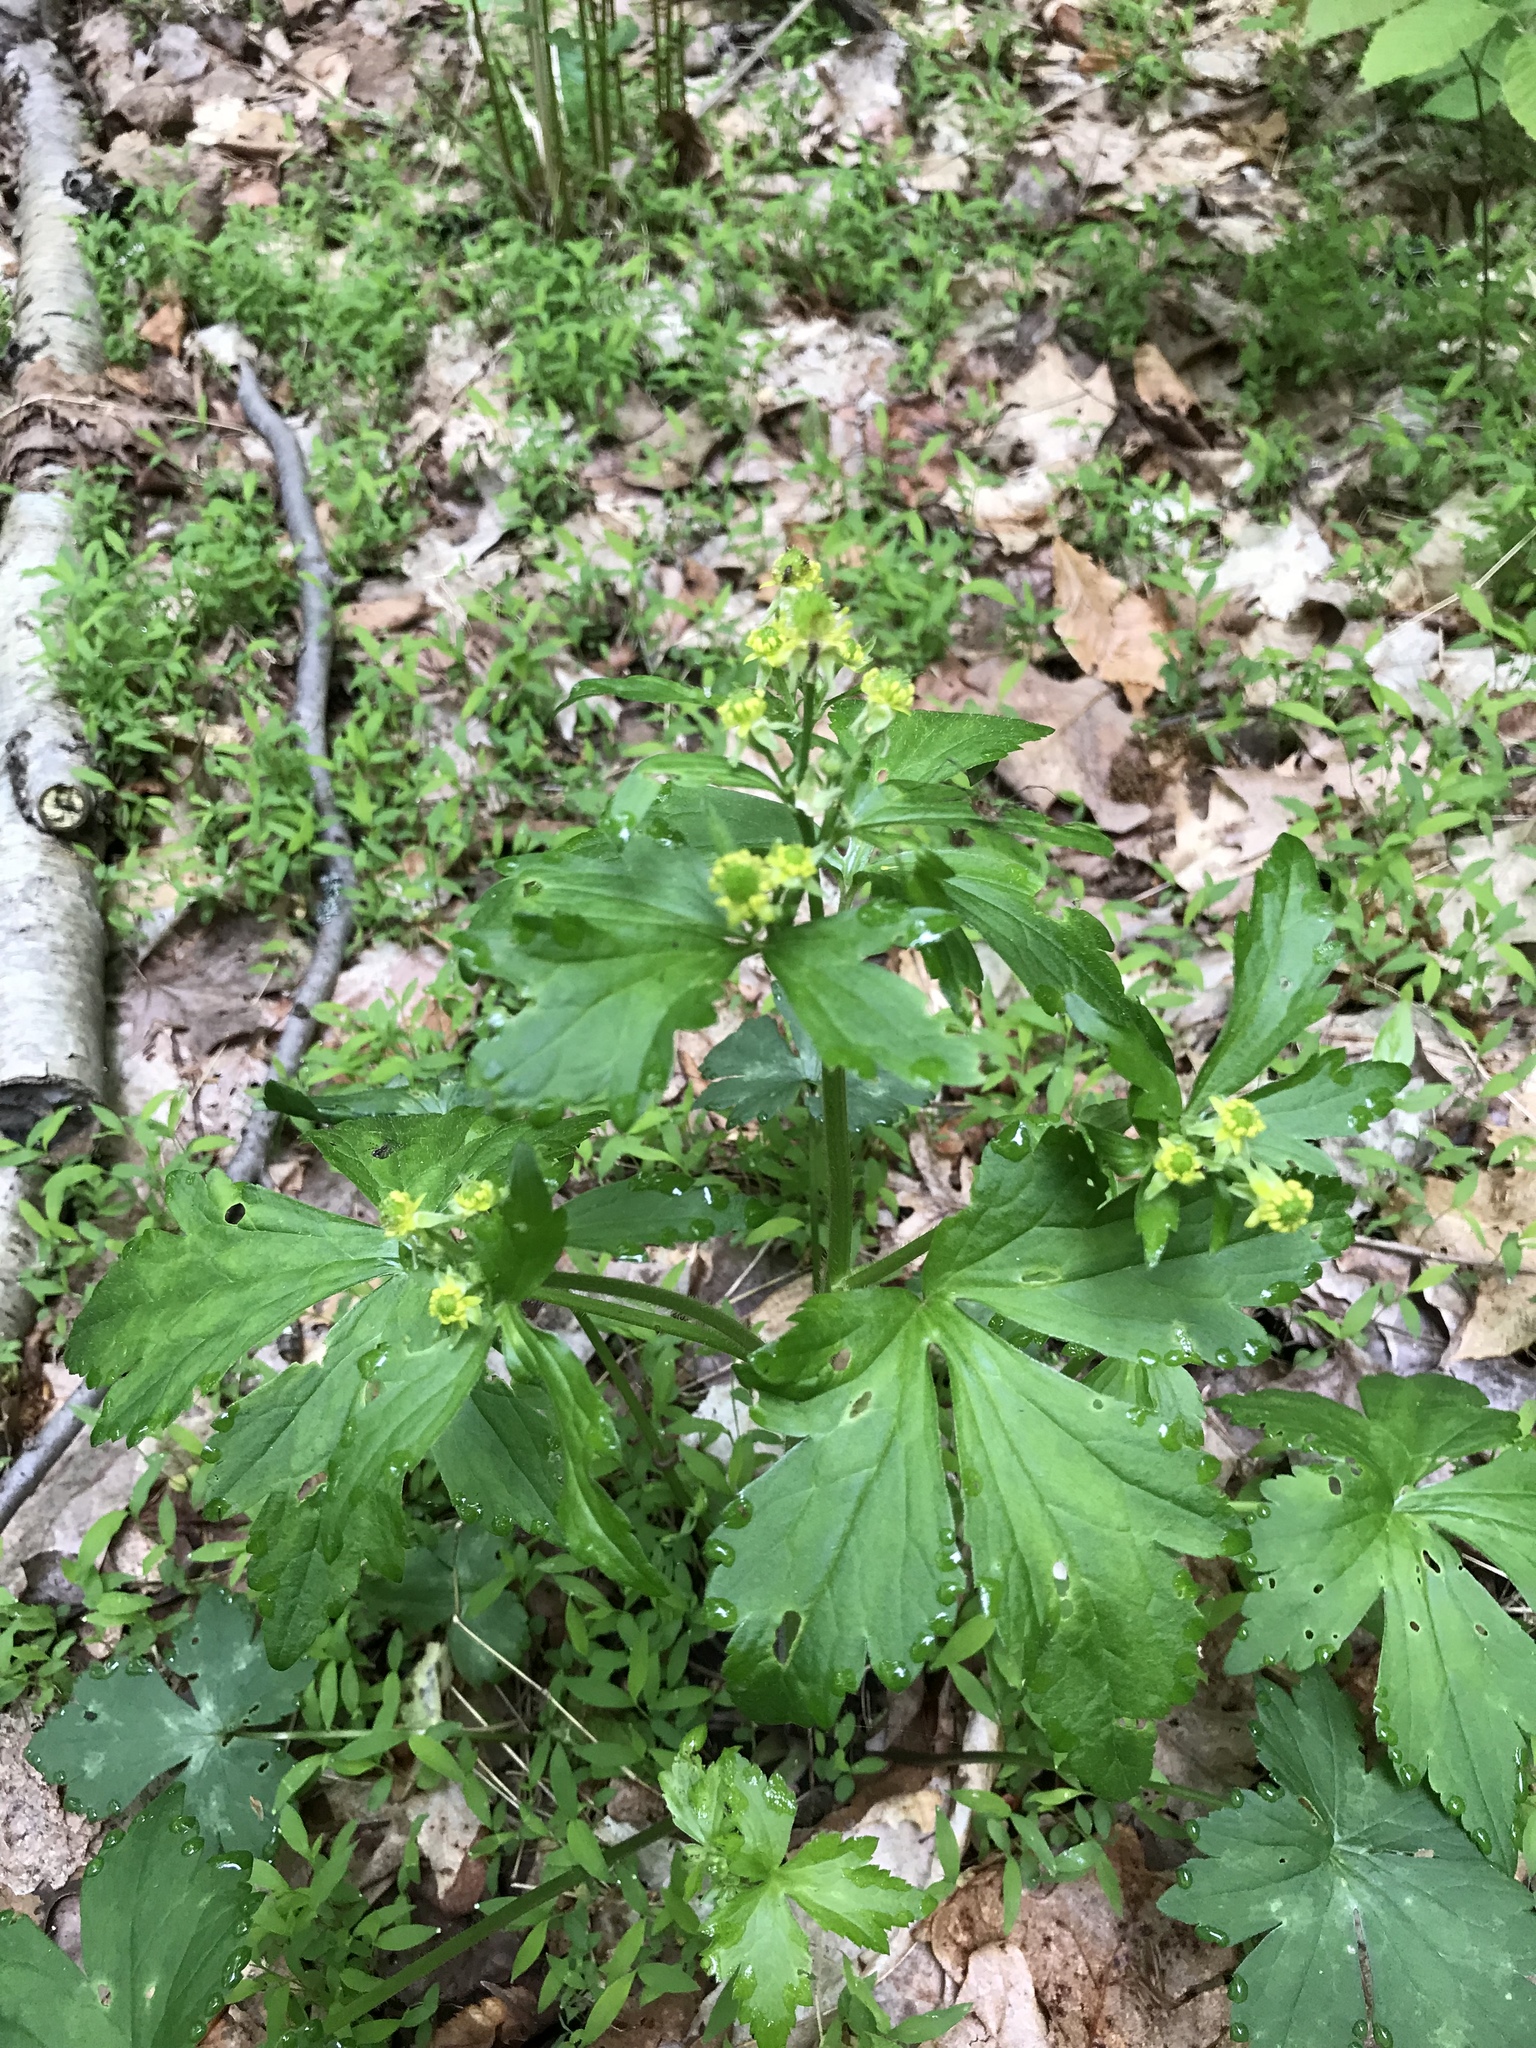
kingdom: Plantae
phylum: Tracheophyta
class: Magnoliopsida
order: Ranunculales
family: Ranunculaceae
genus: Ranunculus
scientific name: Ranunculus recurvatus
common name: Blisterwort
